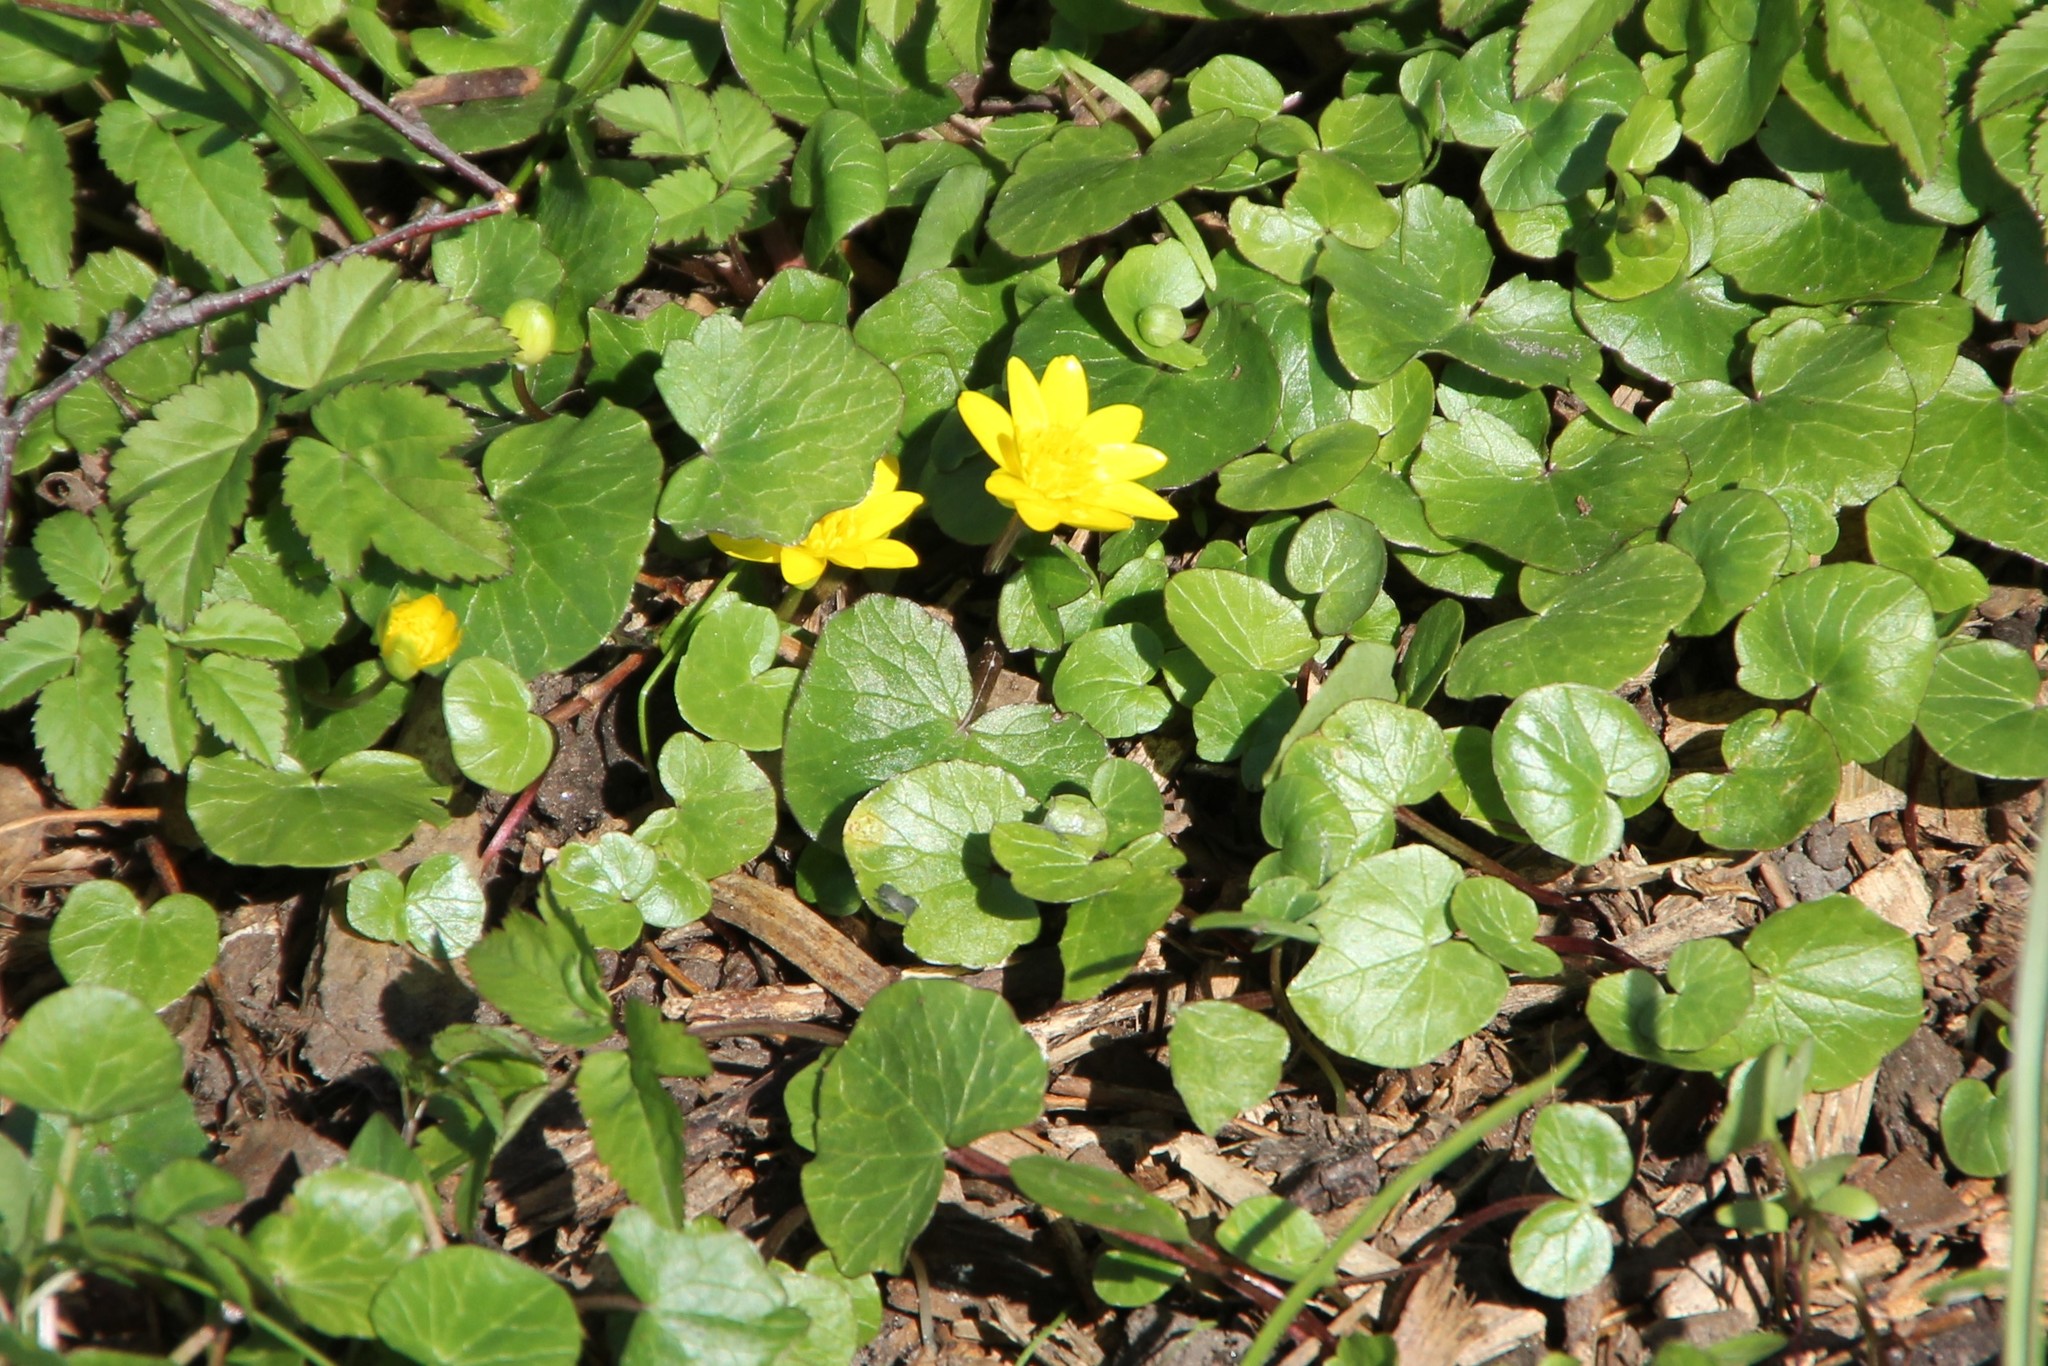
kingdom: Plantae
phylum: Tracheophyta
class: Magnoliopsida
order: Ranunculales
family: Ranunculaceae
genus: Ficaria
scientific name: Ficaria verna
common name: Lesser celandine
